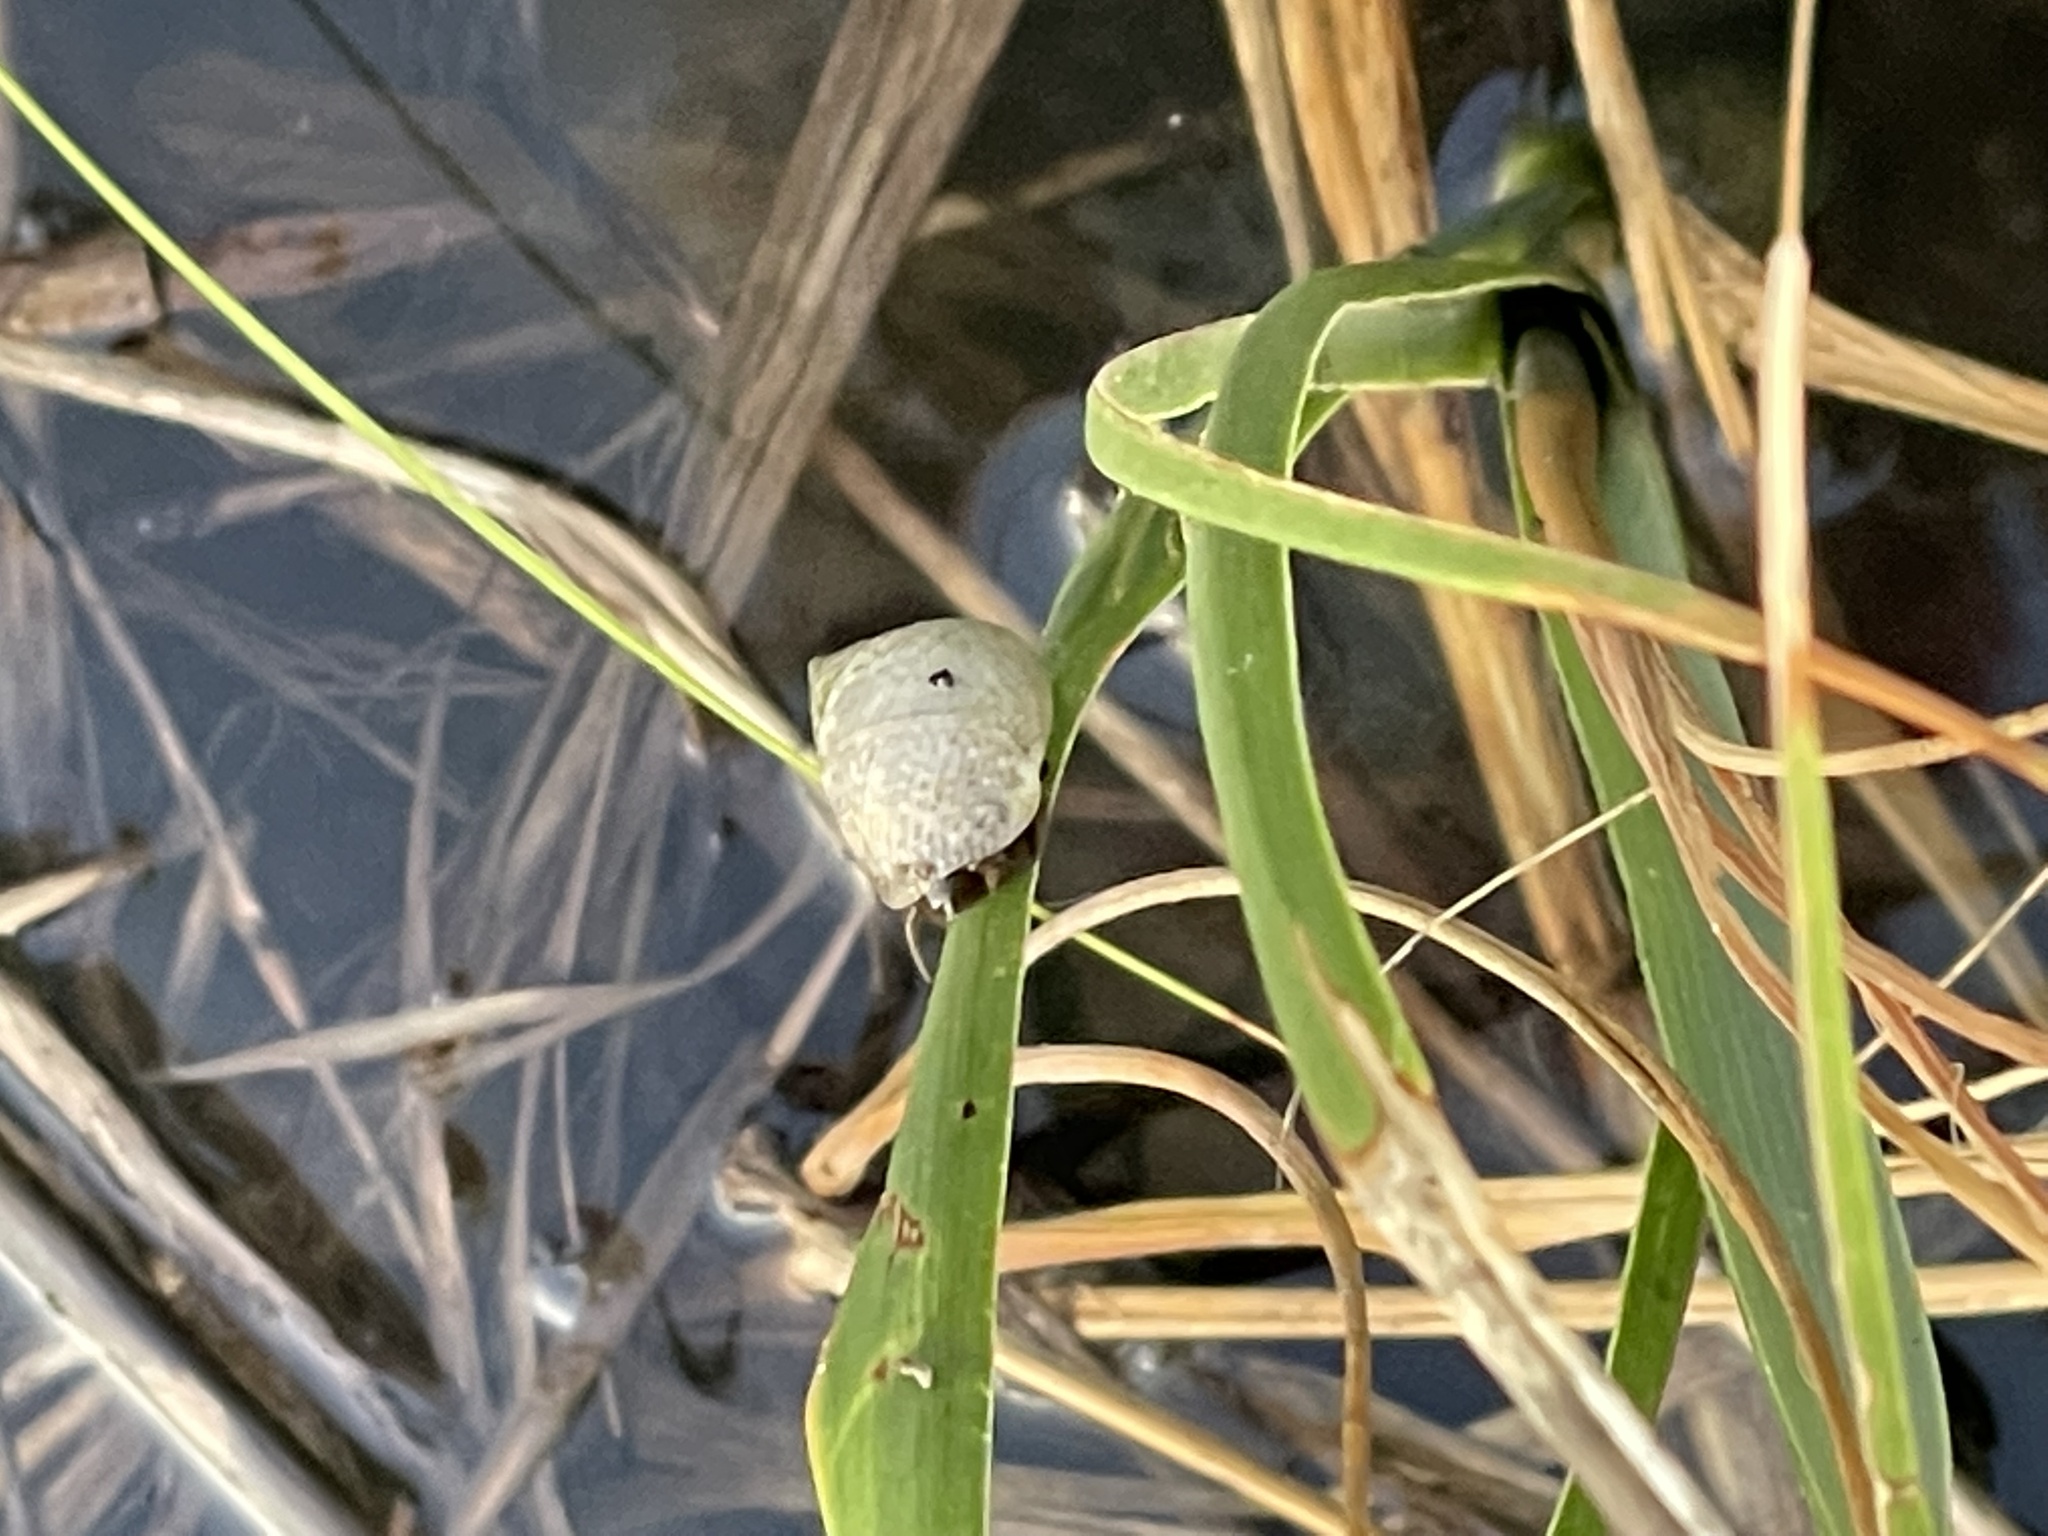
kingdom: Animalia
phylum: Mollusca
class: Gastropoda
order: Littorinimorpha
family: Littorinidae
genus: Littoraria
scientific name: Littoraria irrorata
